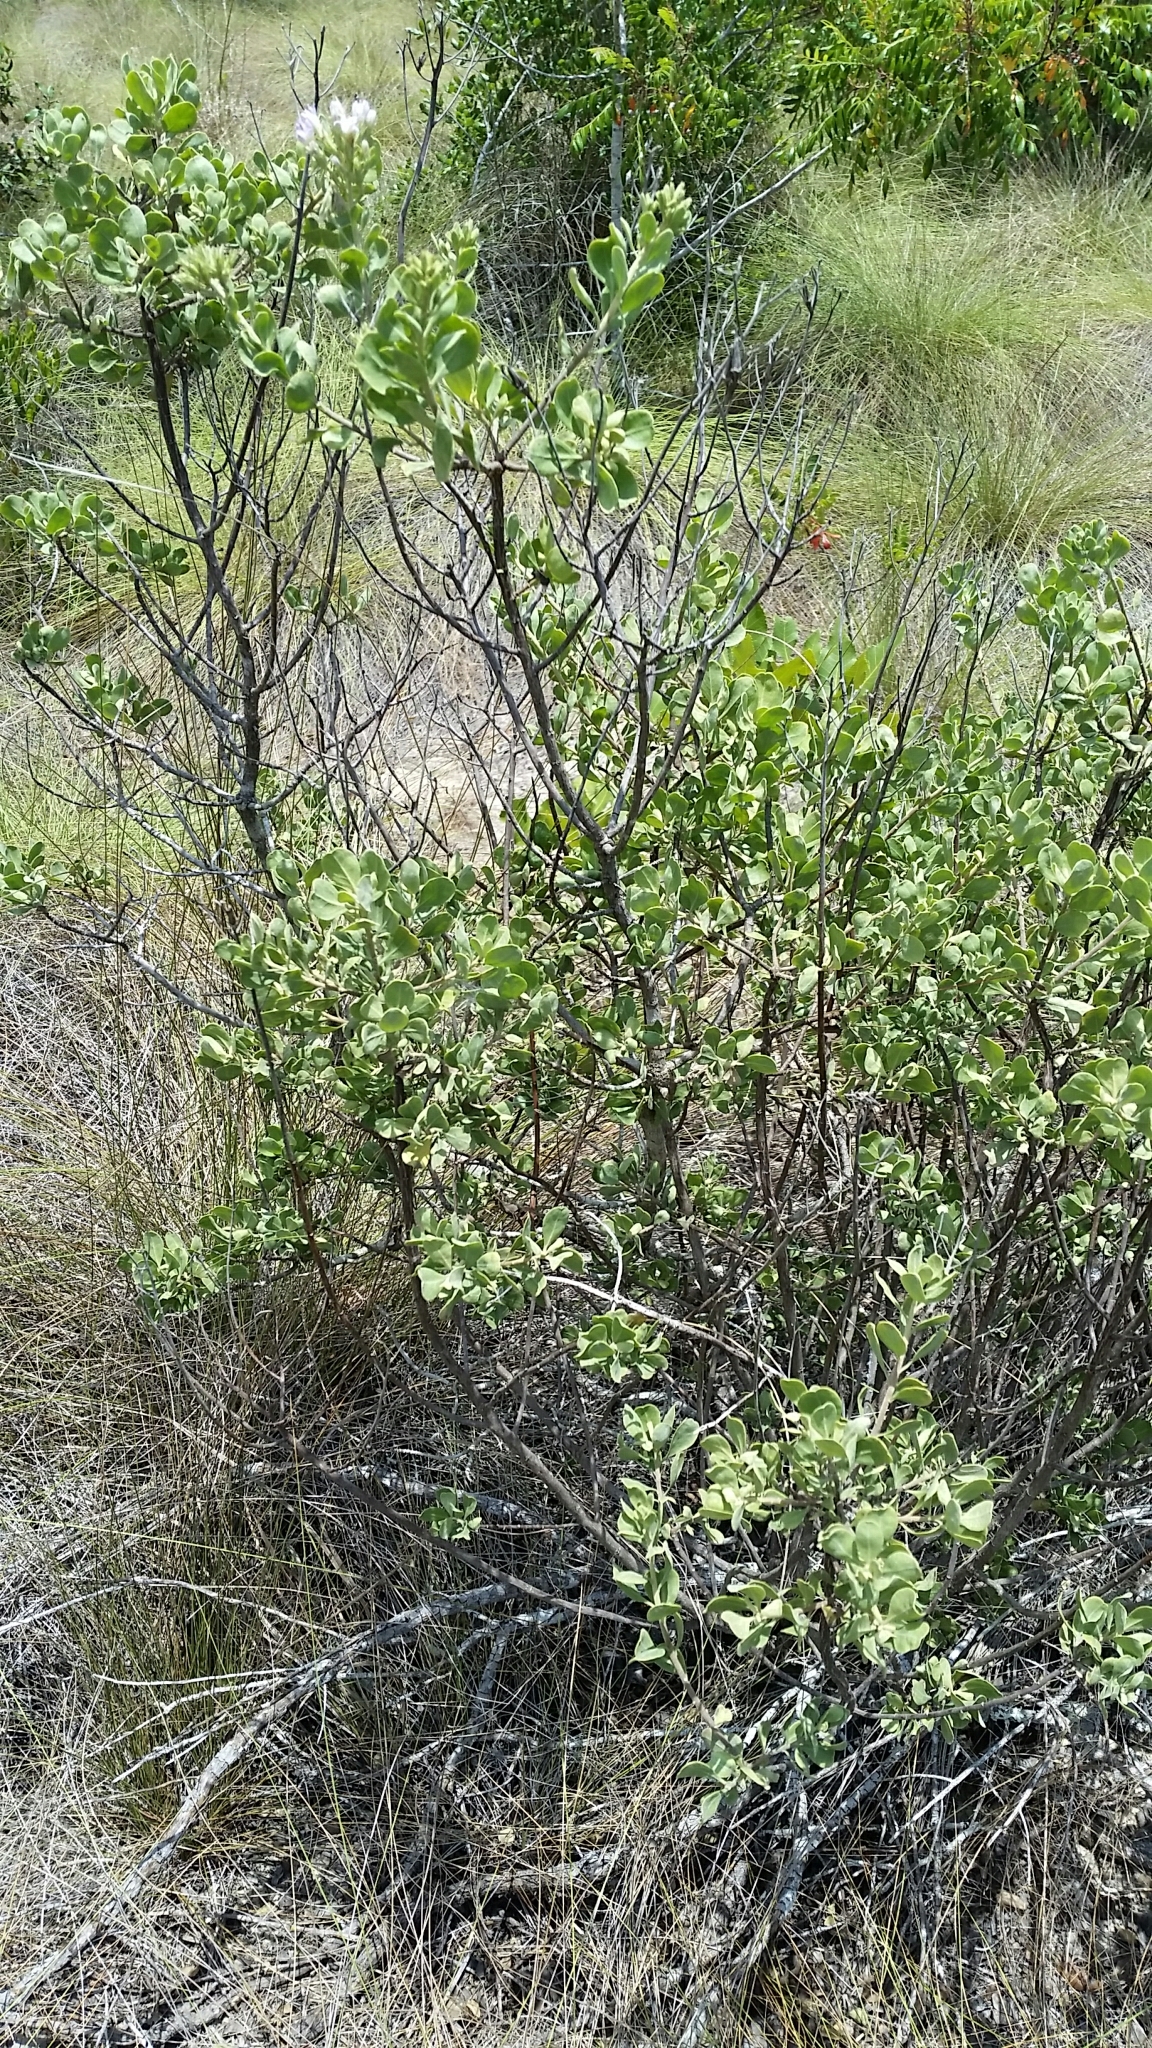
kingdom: Plantae
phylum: Tracheophyta
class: Magnoliopsida
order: Asterales
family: Asteraceae
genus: Garberia
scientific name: Garberia heterophylla
